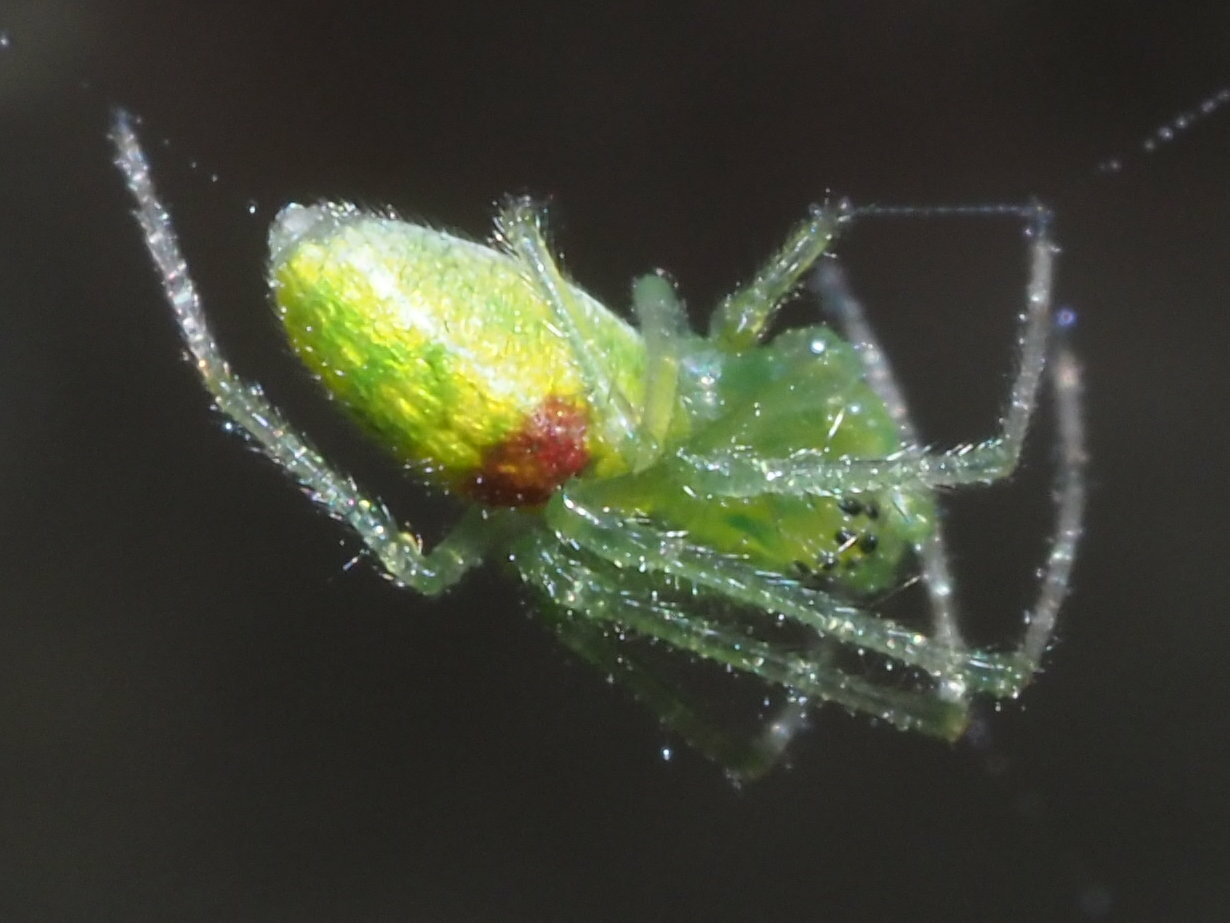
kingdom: Animalia
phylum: Arthropoda
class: Arachnida
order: Araneae
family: Tetragnathidae
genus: Tetragnatha
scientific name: Tetragnatha kauaiensis
